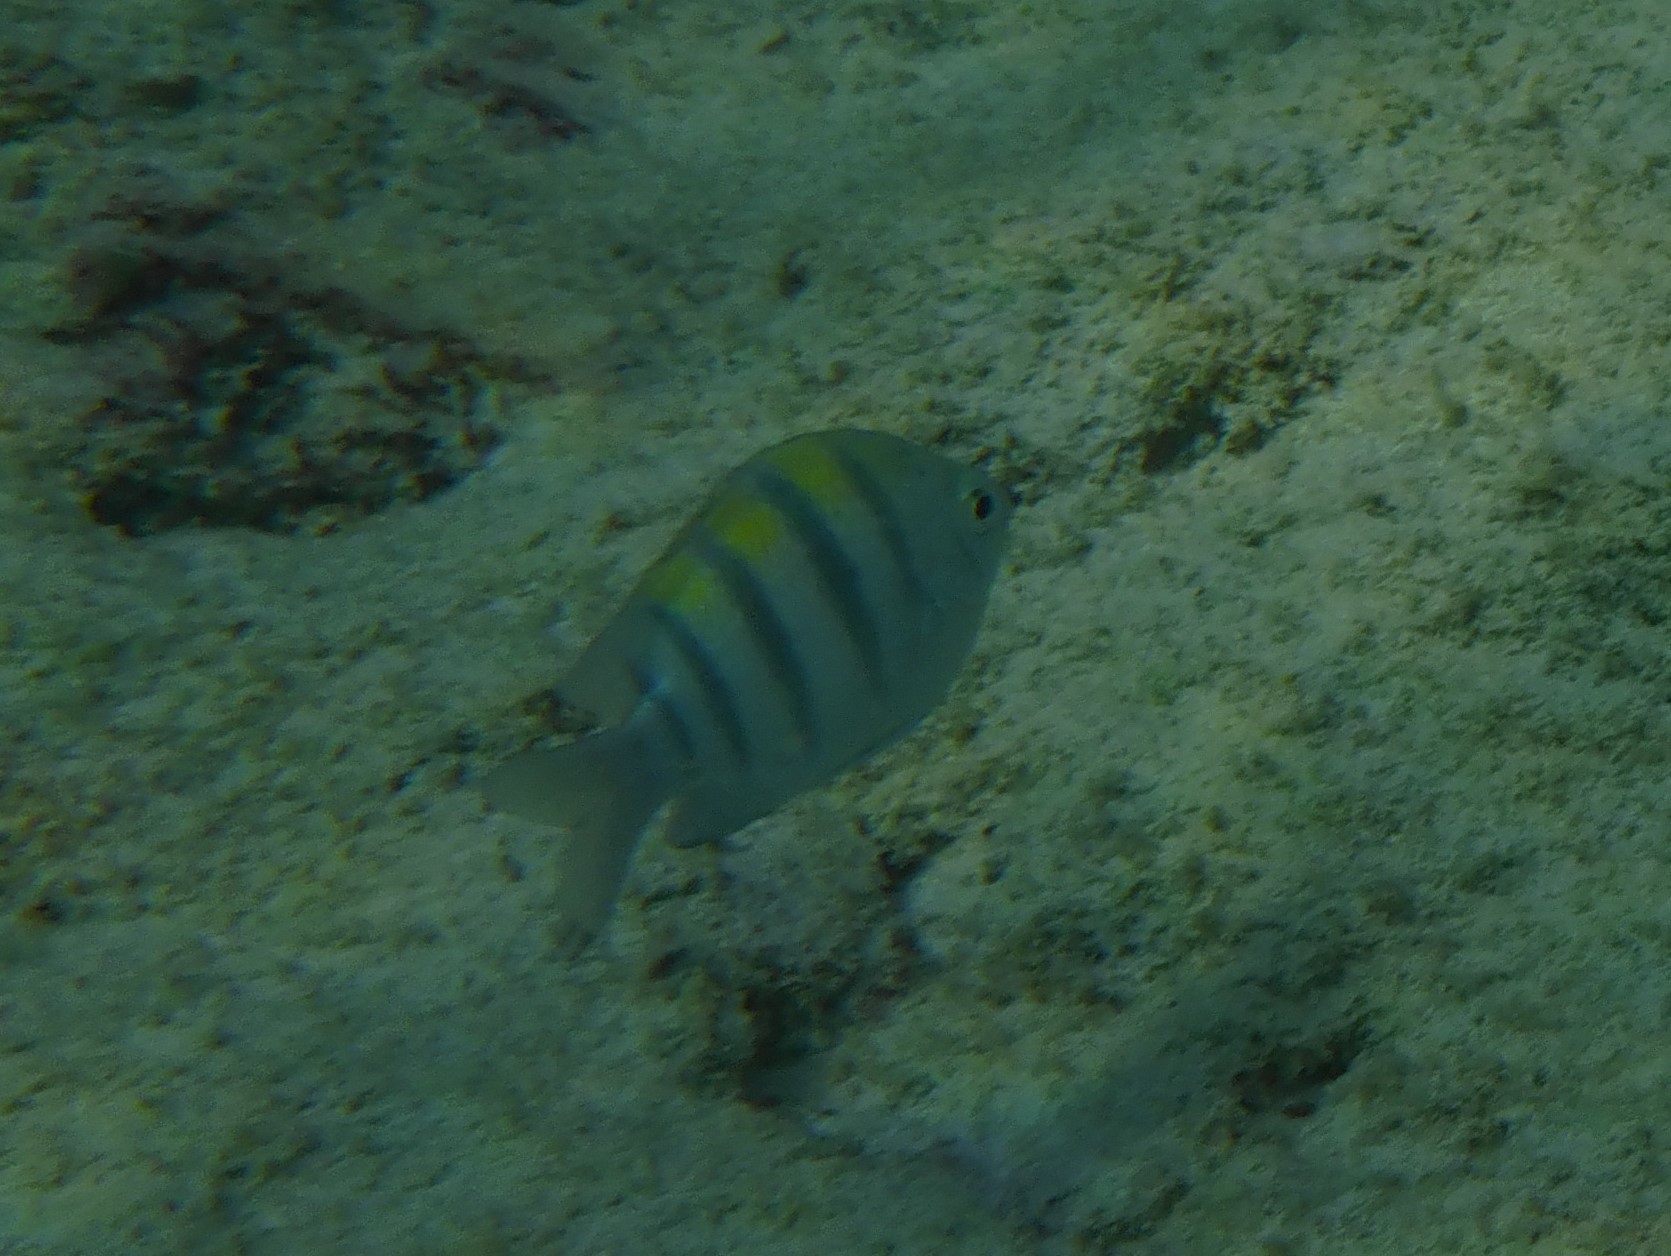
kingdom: Animalia
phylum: Chordata
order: Perciformes
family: Pomacentridae
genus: Abudefduf
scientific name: Abudefduf saxatilis
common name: Sergeant major
